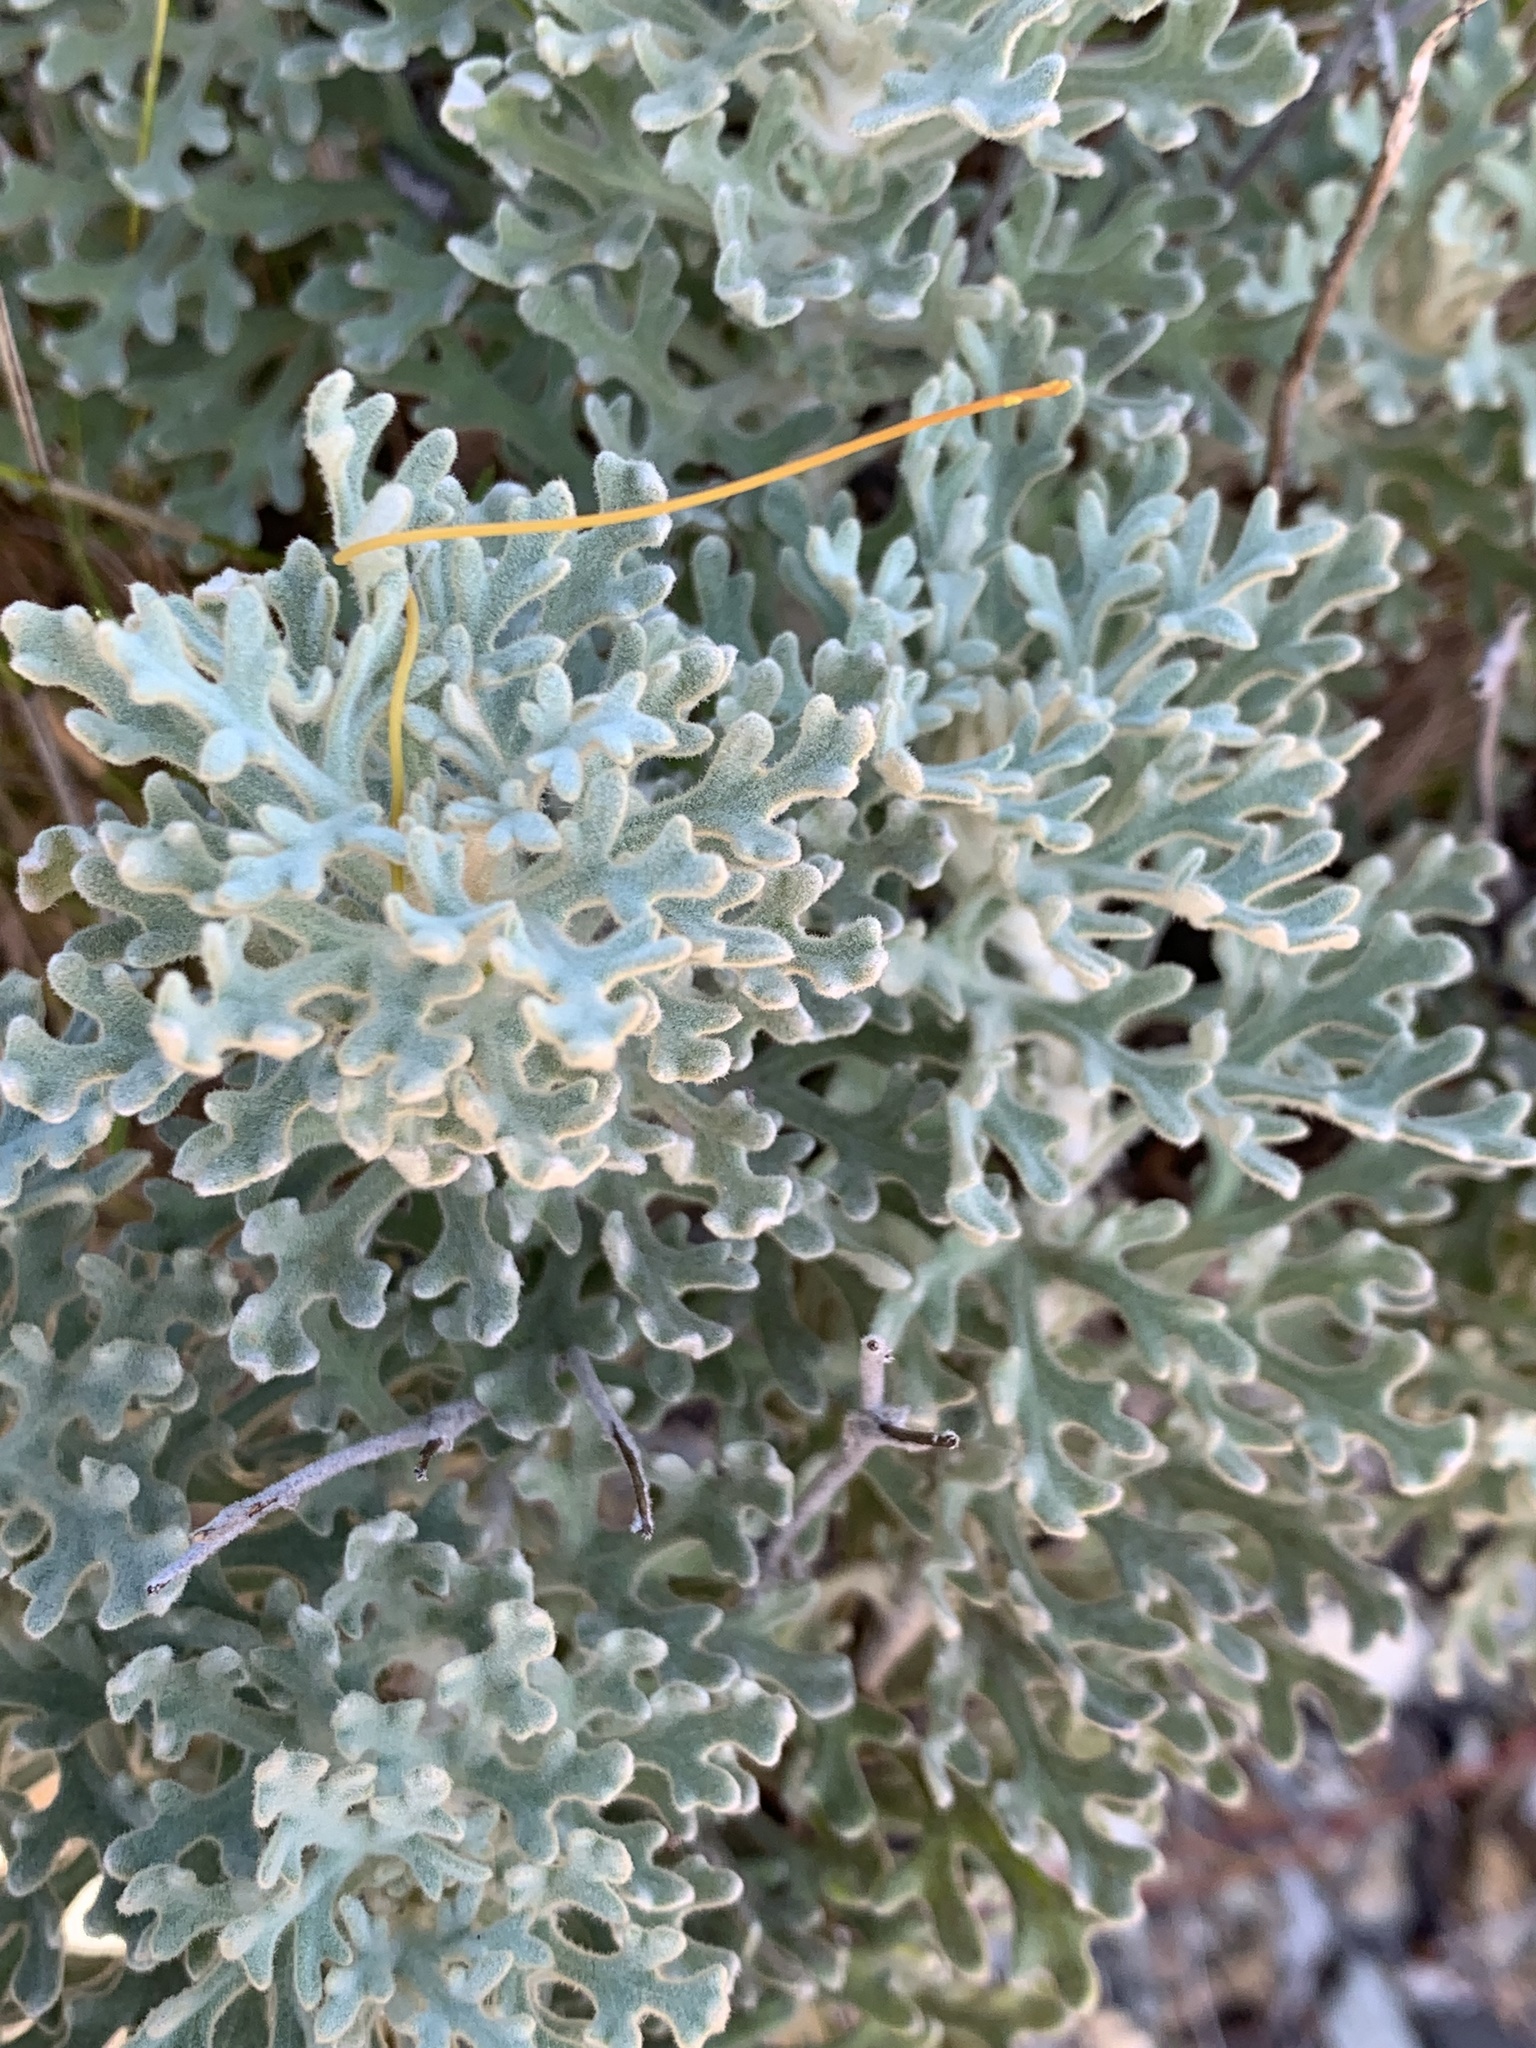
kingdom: Plantae
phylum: Tracheophyta
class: Magnoliopsida
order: Apiales
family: Apiaceae
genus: Actinotus
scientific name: Actinotus helianthi
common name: Flannel-flower
